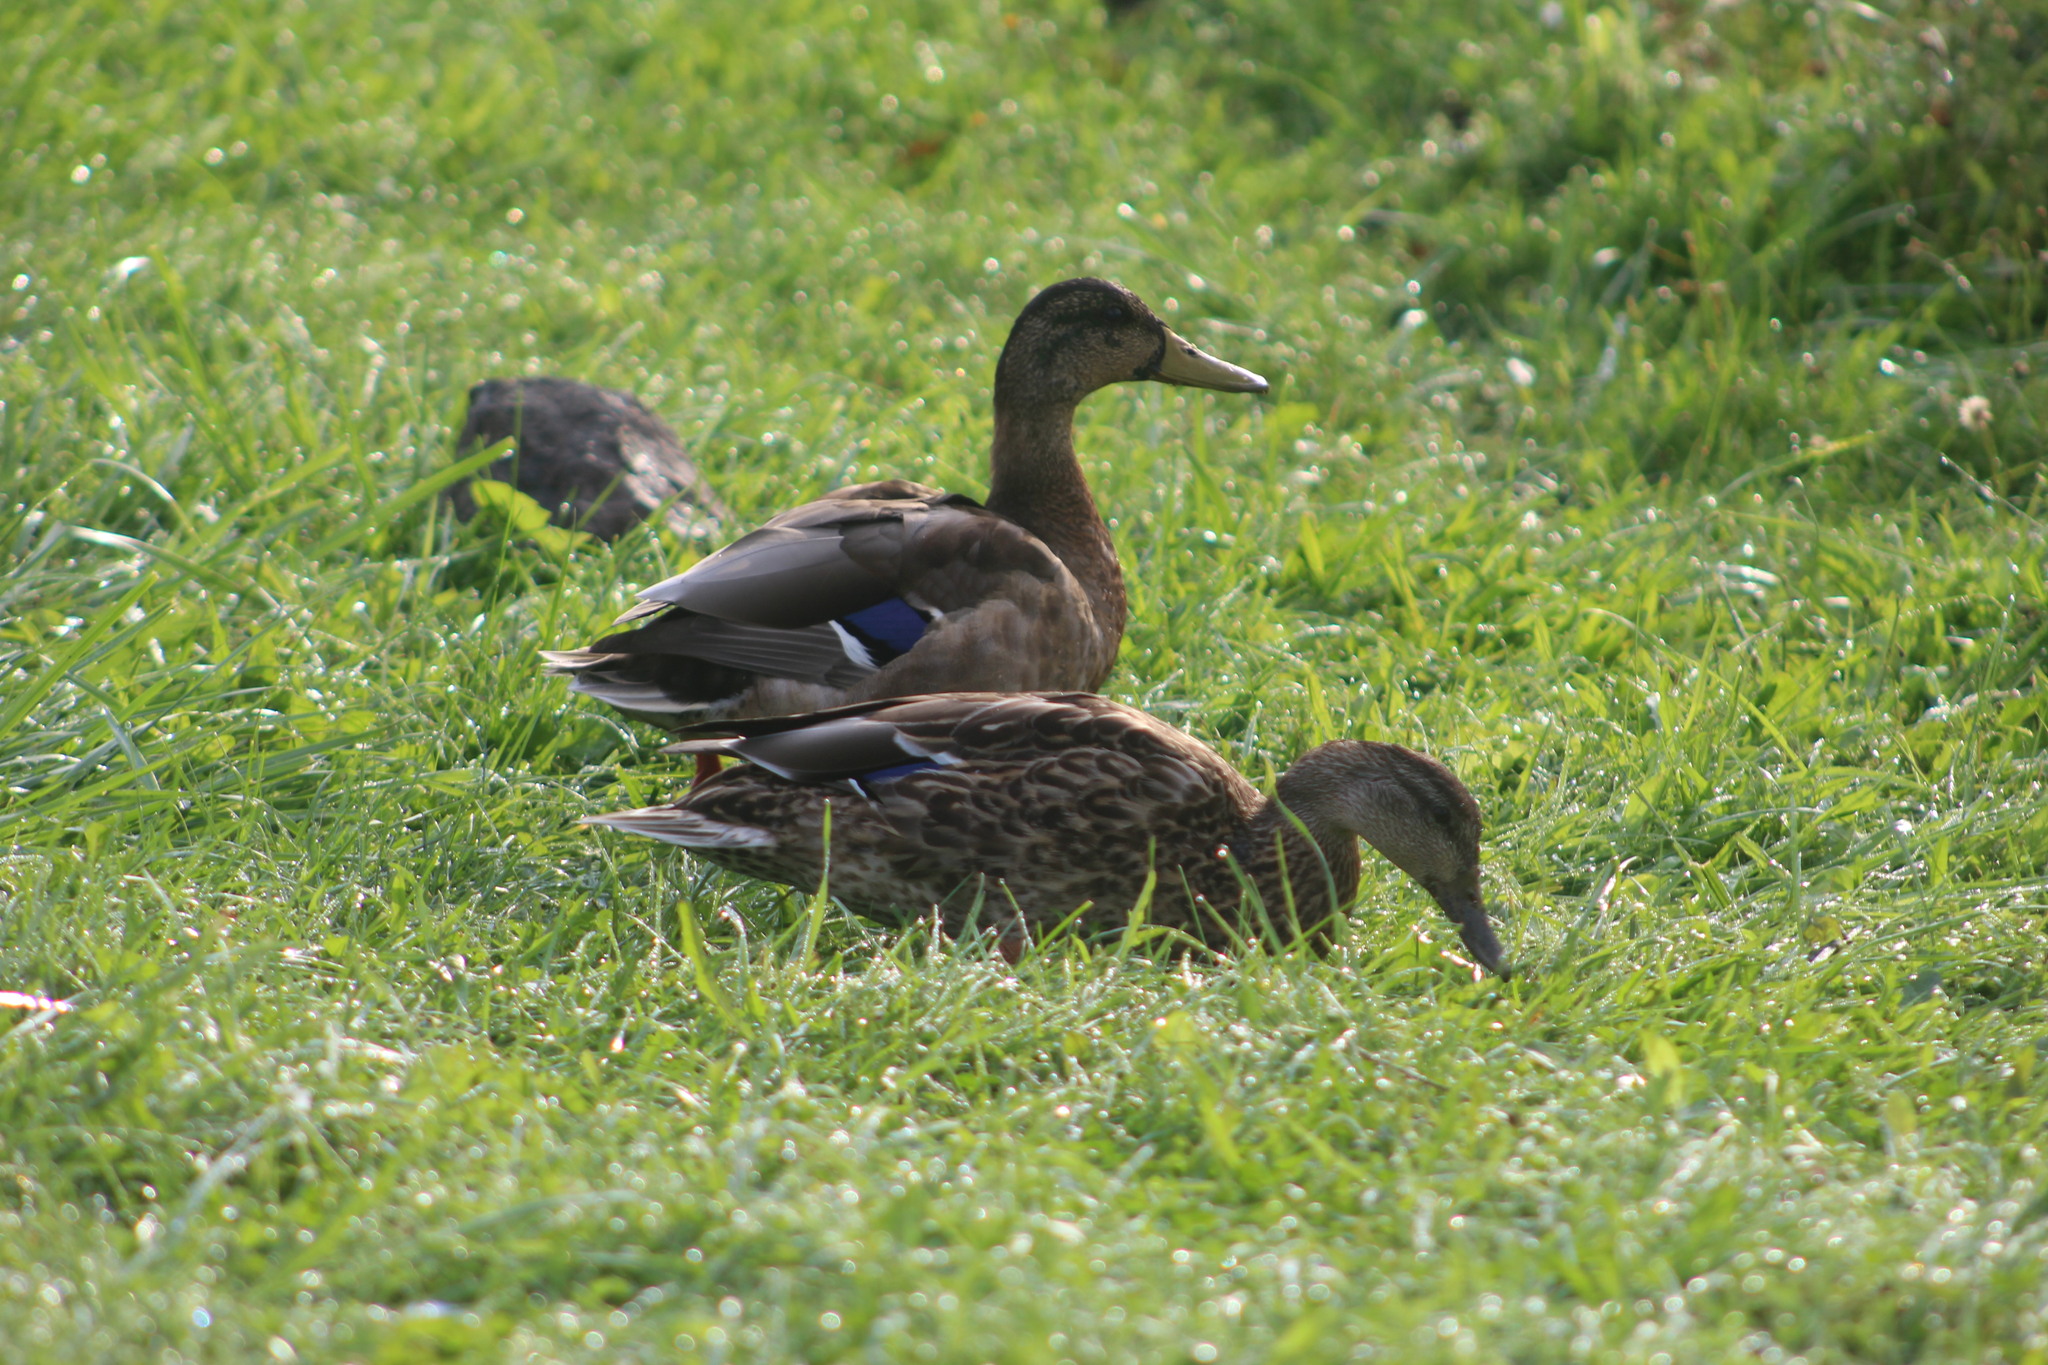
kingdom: Animalia
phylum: Chordata
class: Aves
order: Anseriformes
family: Anatidae
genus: Anas
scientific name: Anas platyrhynchos
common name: Mallard
